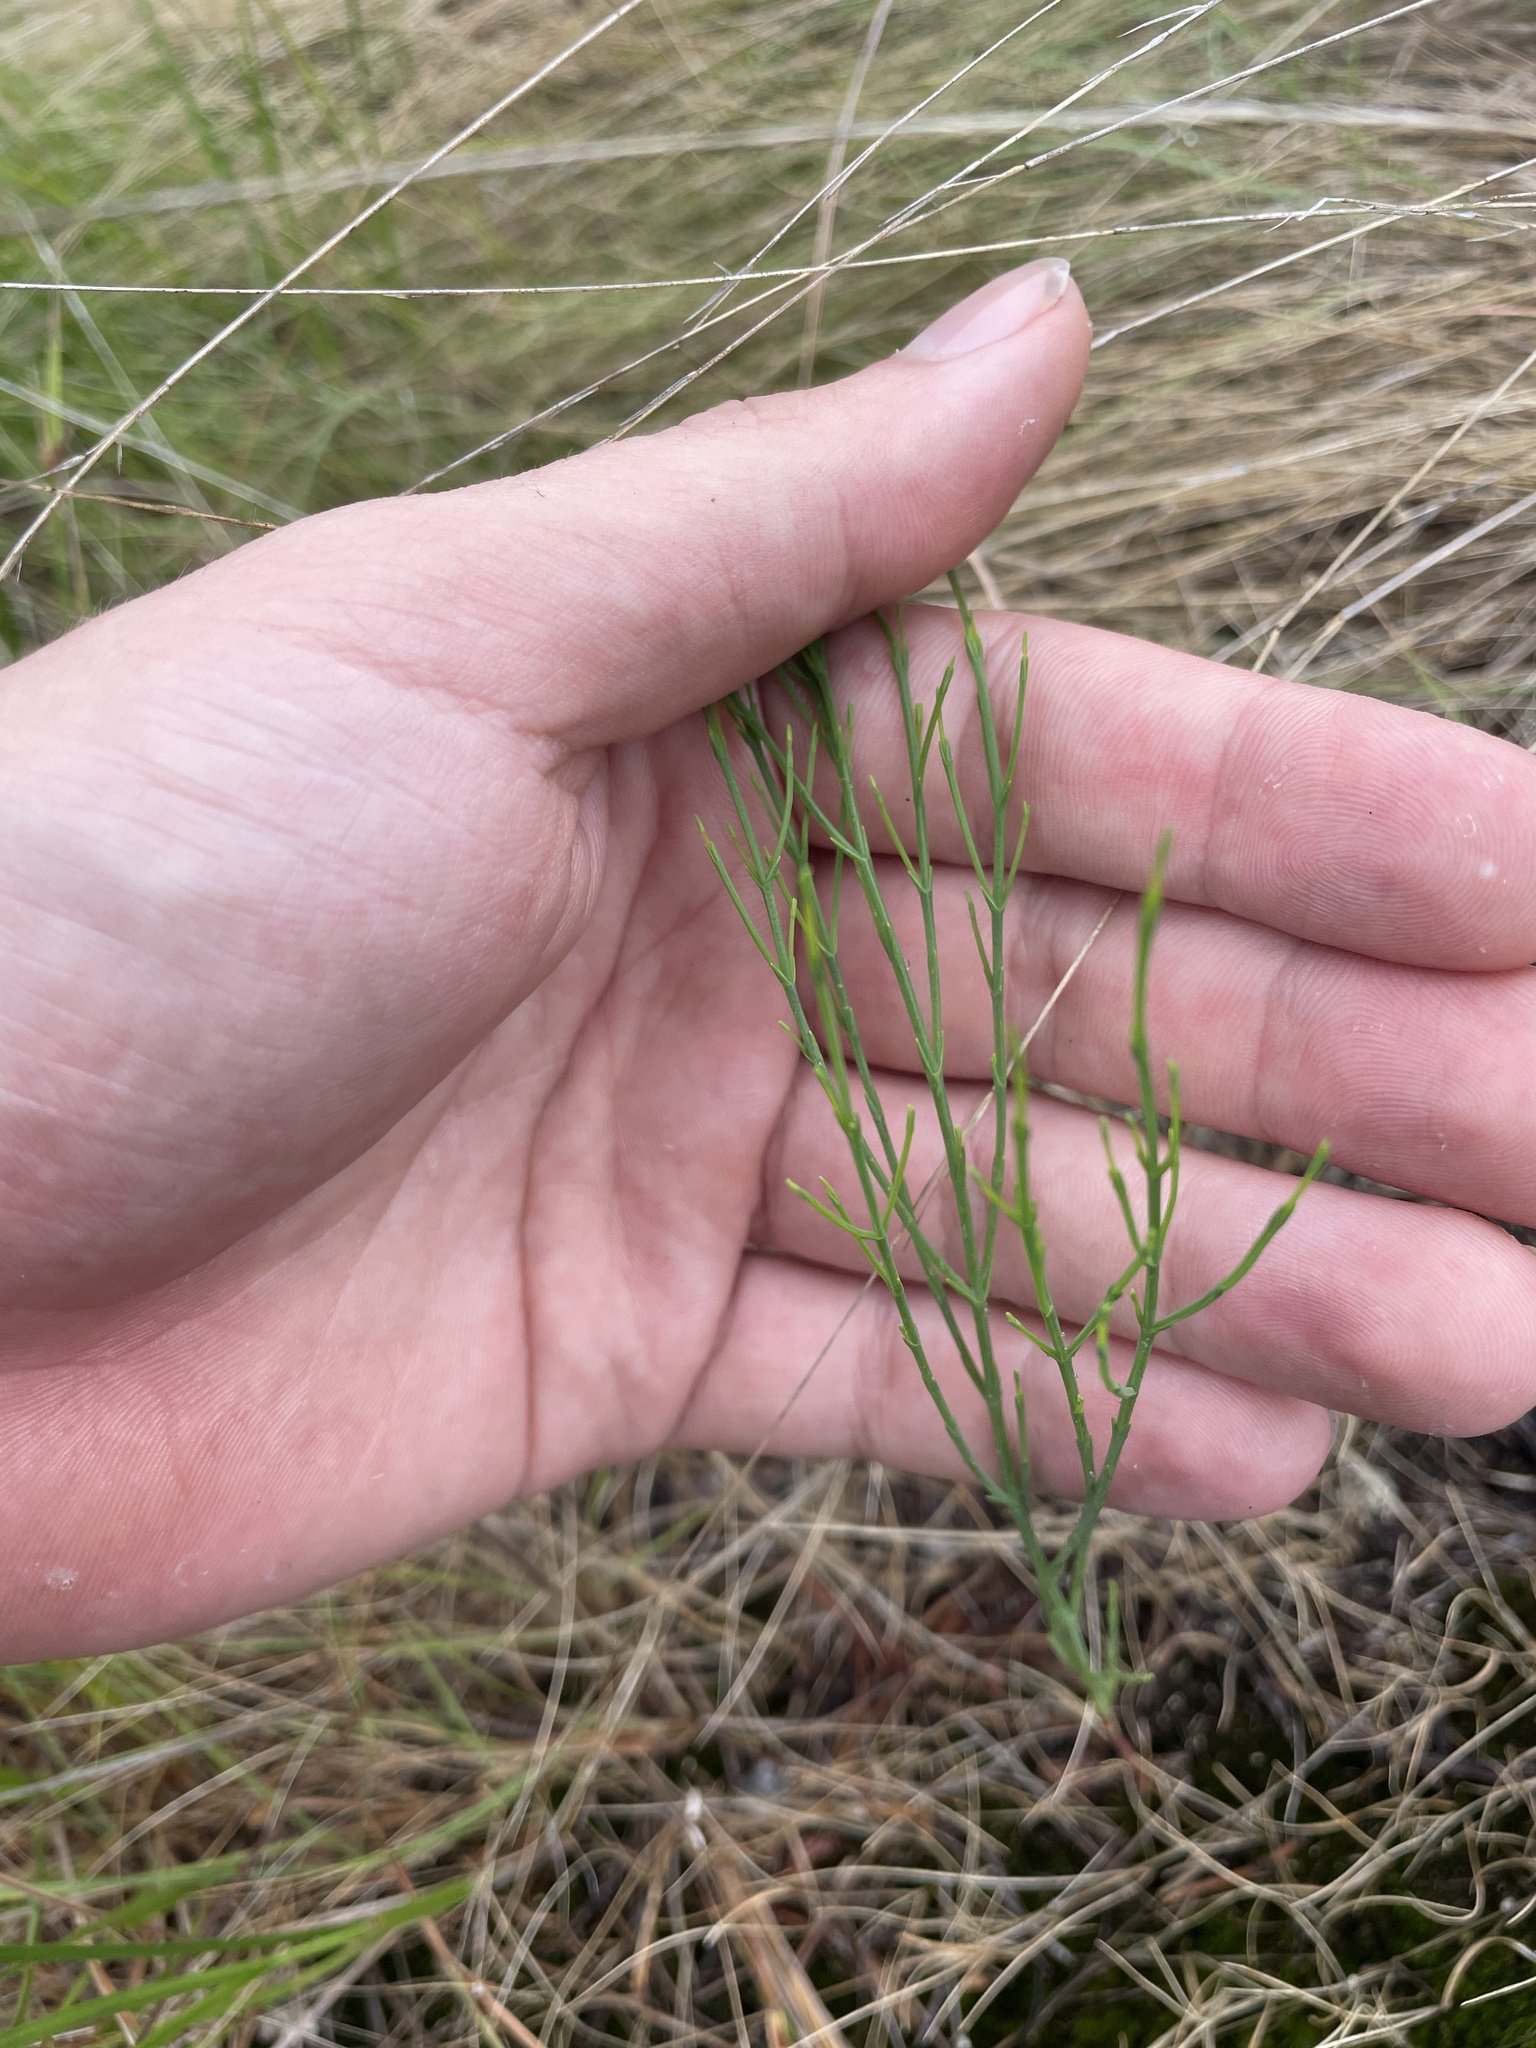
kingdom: Plantae
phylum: Tracheophyta
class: Magnoliopsida
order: Malpighiales
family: Hypericaceae
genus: Hypericum
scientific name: Hypericum gentianoides
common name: Gentian-leaved st. john's-wort
